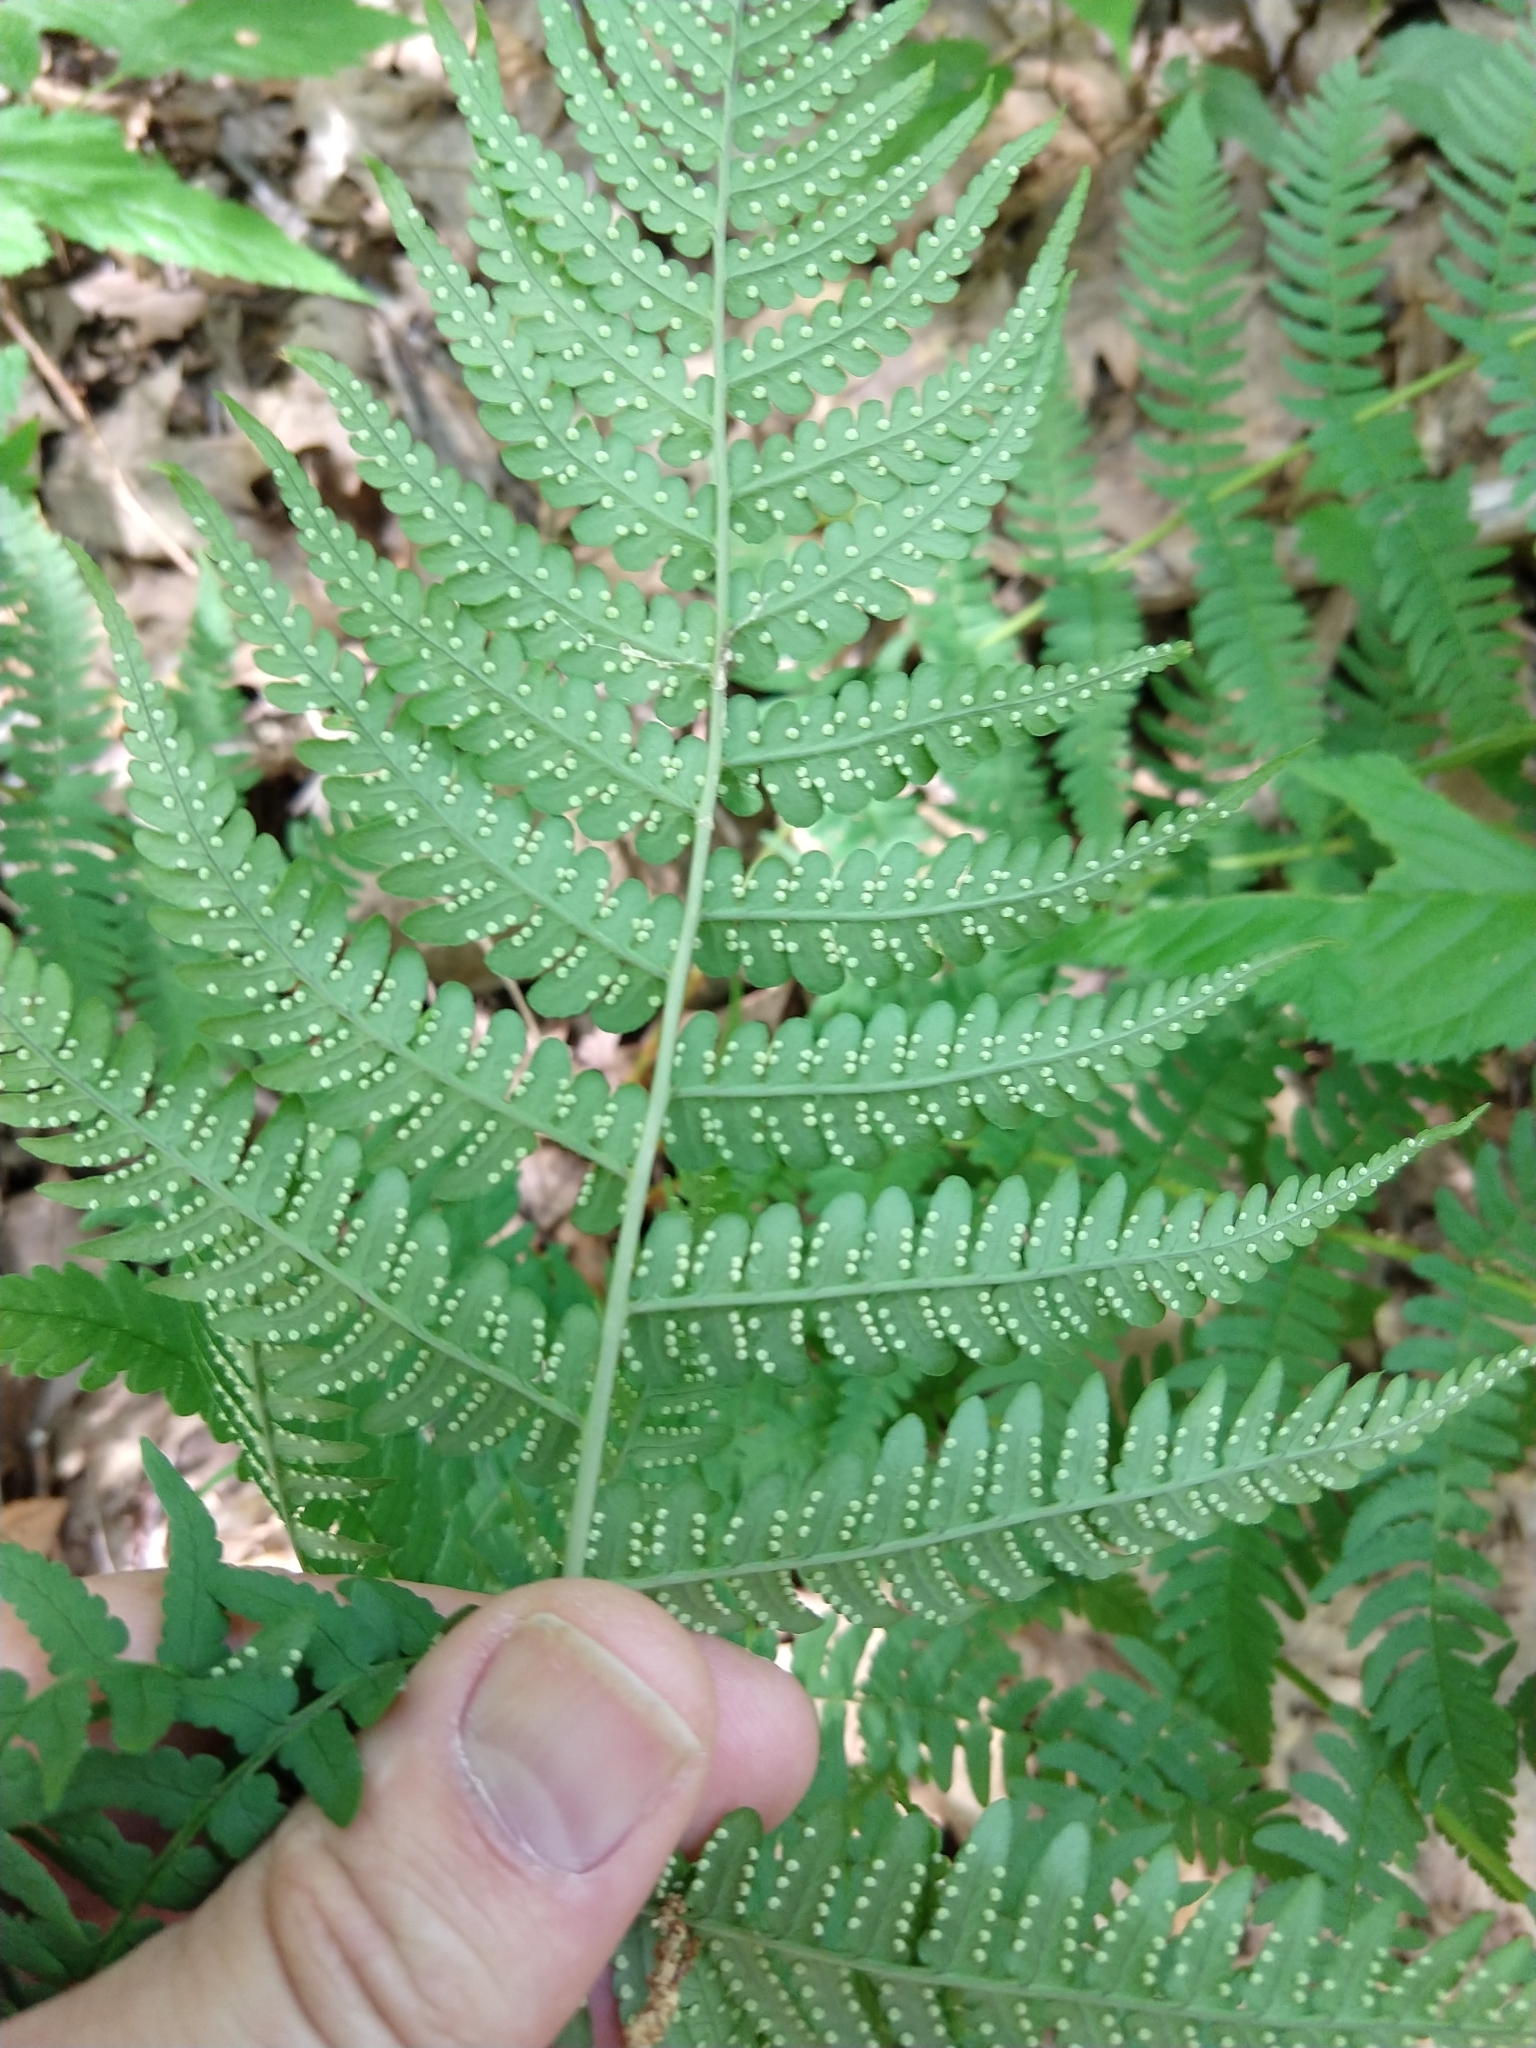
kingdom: Plantae
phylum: Tracheophyta
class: Polypodiopsida
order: Polypodiales
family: Dryopteridaceae
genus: Dryopteris
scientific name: Dryopteris marginalis
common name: Marginal wood fern
